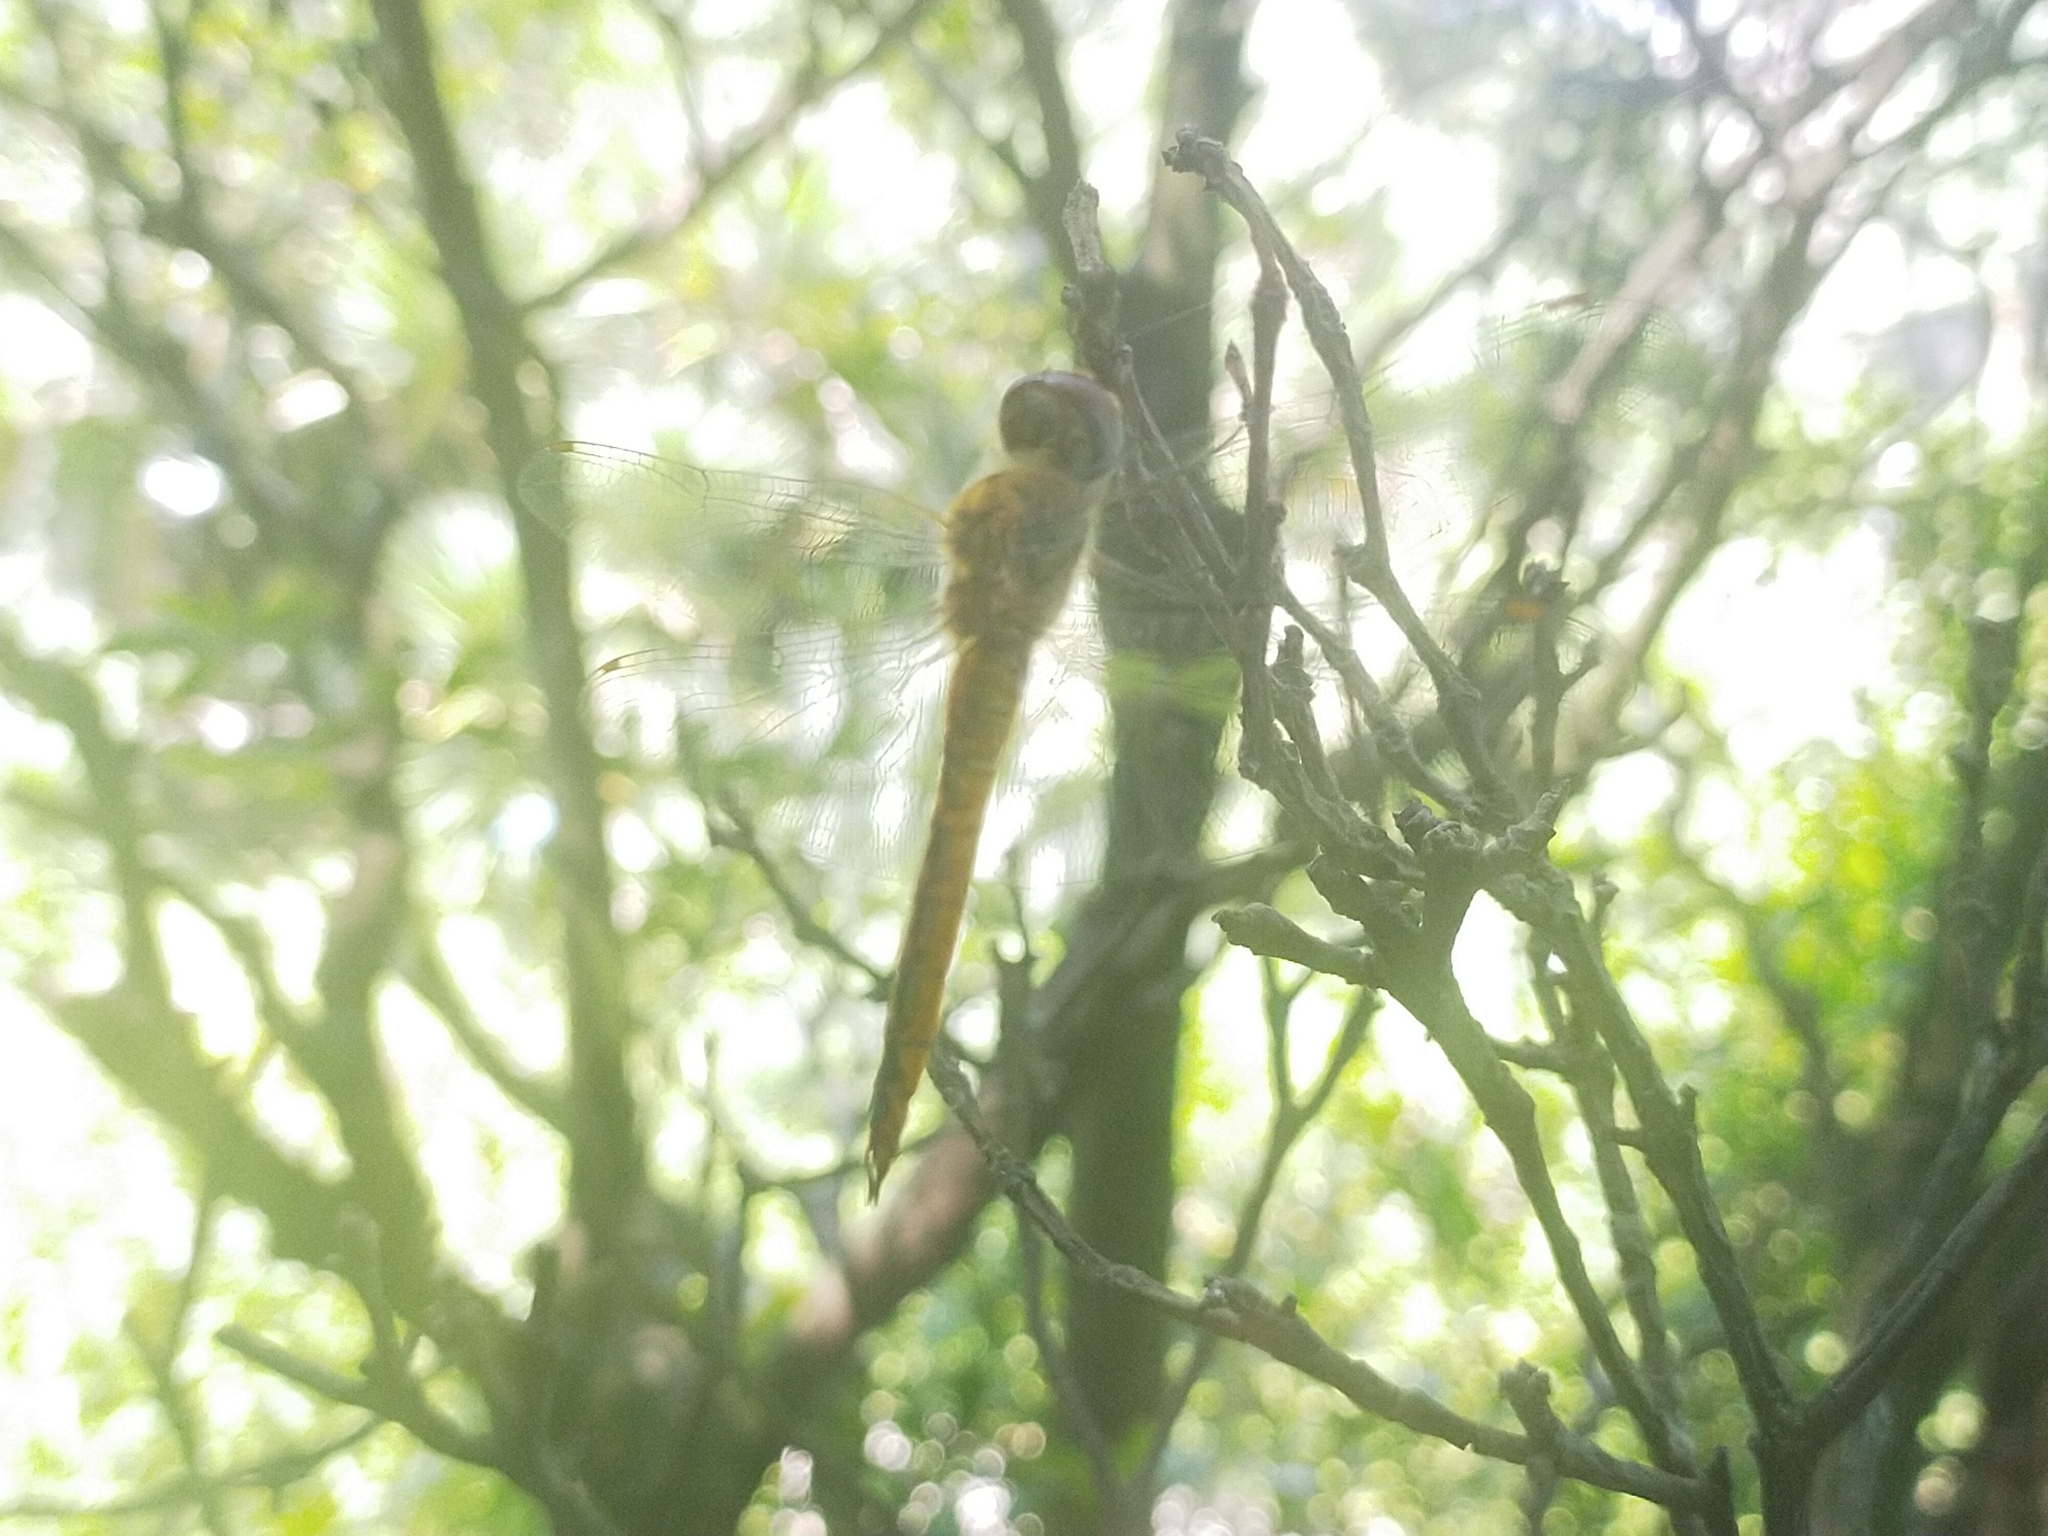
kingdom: Animalia
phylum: Arthropoda
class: Insecta
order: Odonata
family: Libellulidae
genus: Pantala
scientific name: Pantala flavescens
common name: Wandering glider
